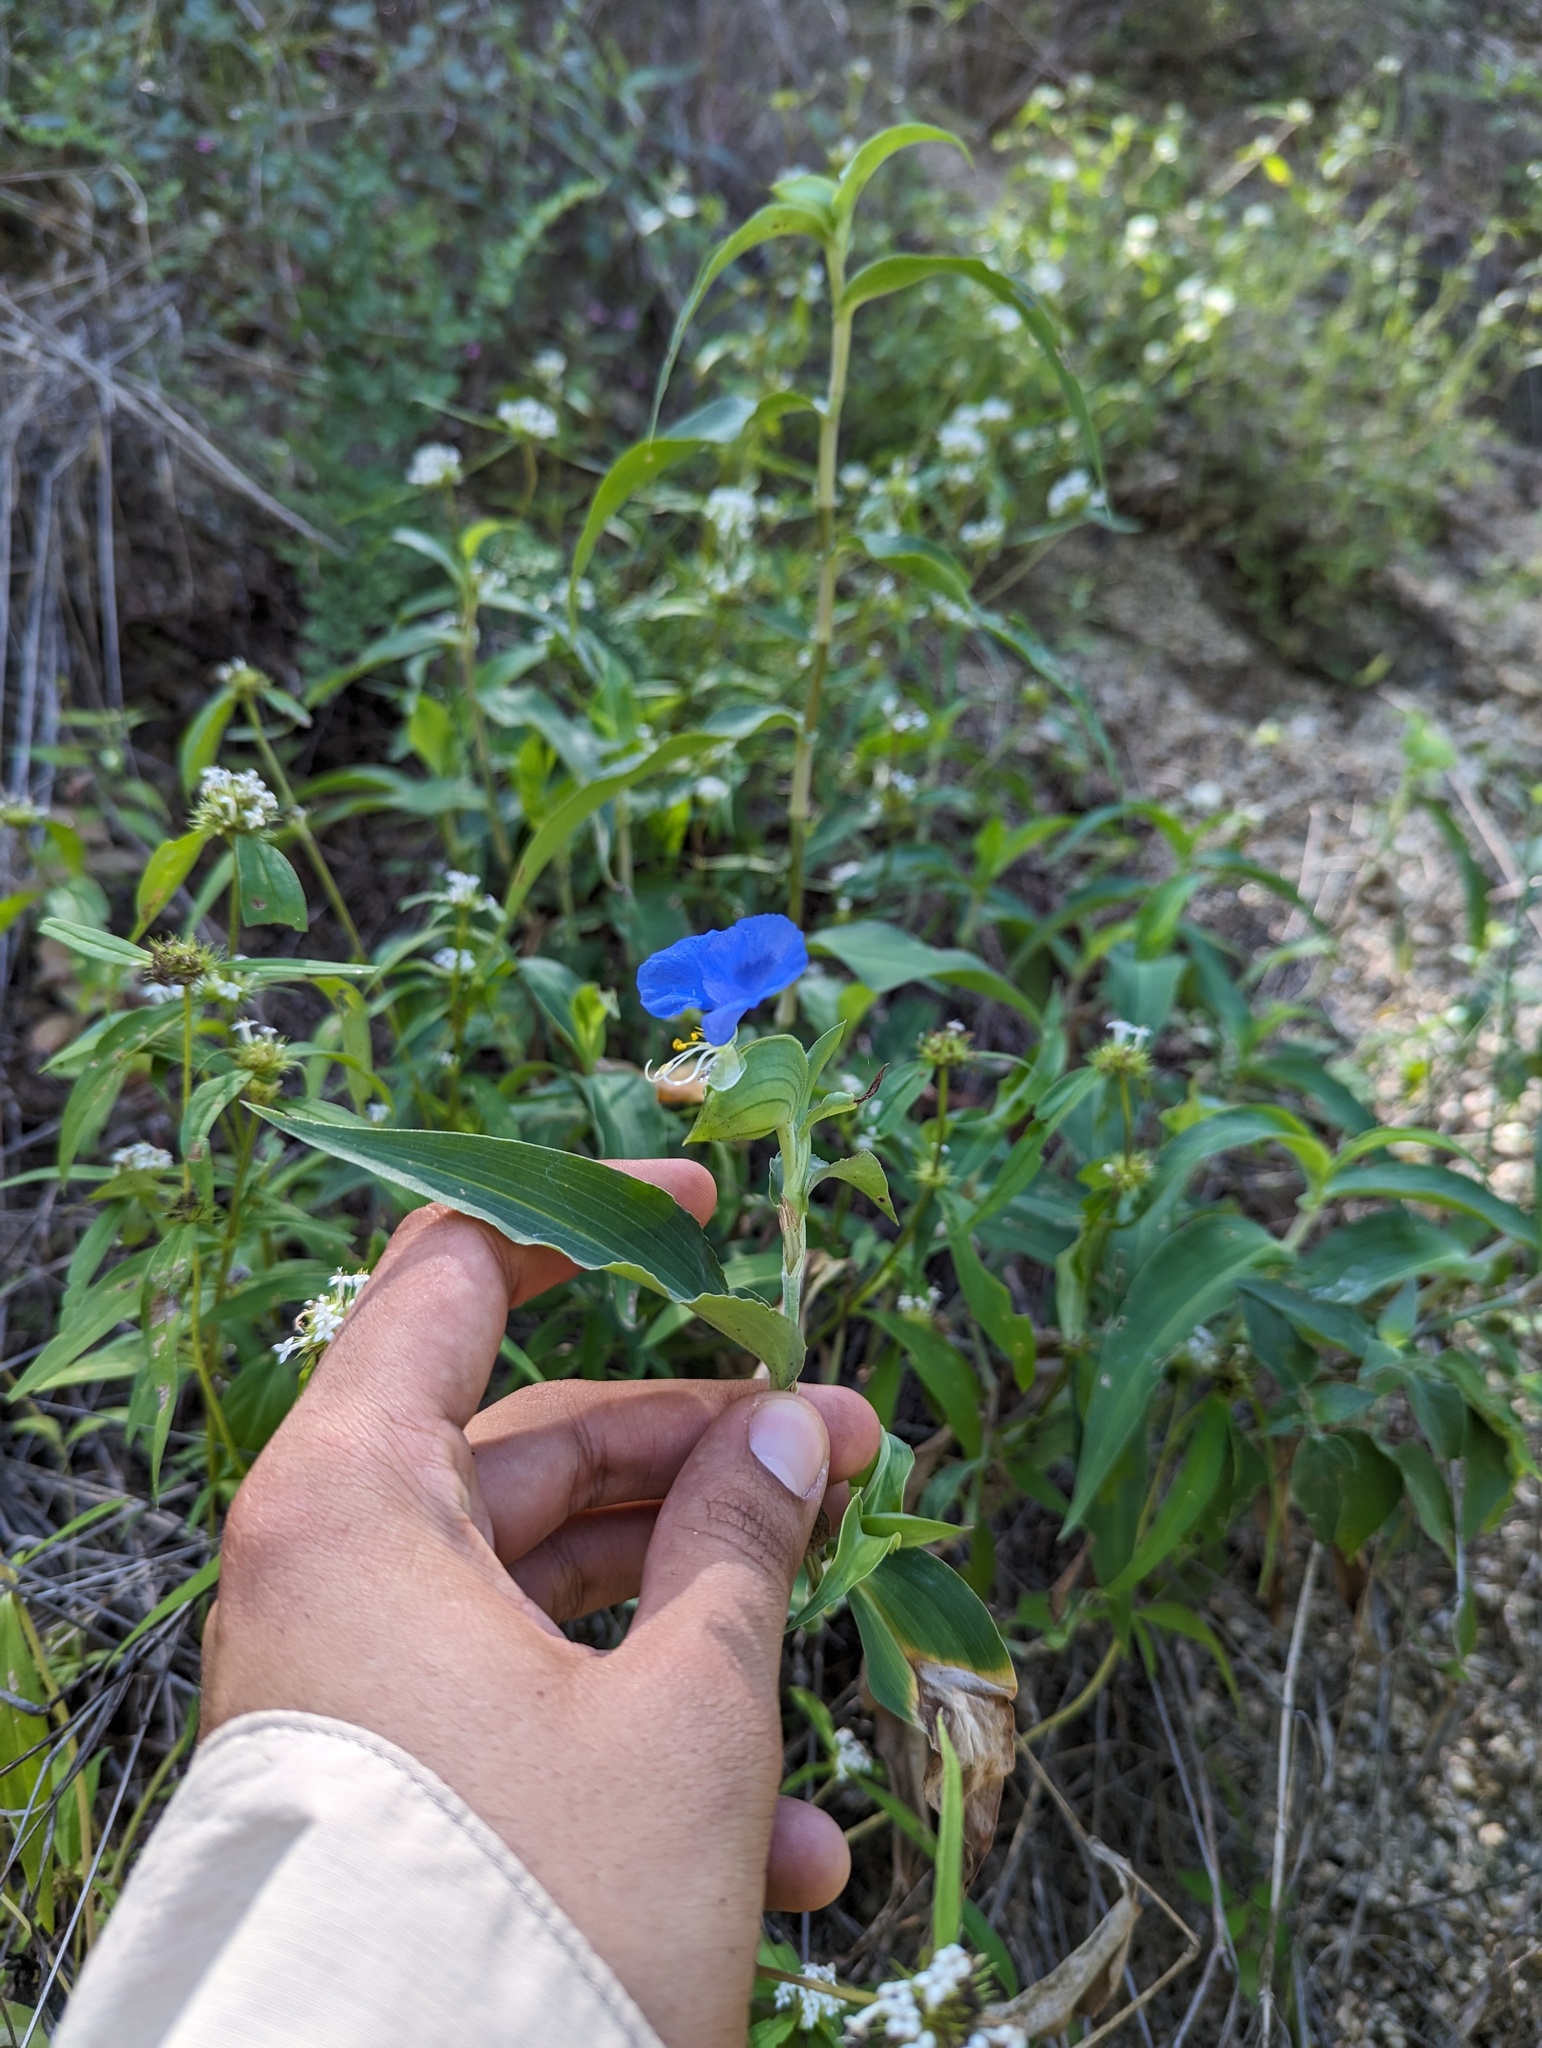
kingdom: Plantae
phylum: Tracheophyta
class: Liliopsida
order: Commelinales
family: Commelinaceae
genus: Commelina
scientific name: Commelina erecta
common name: Blousel blommetjie
